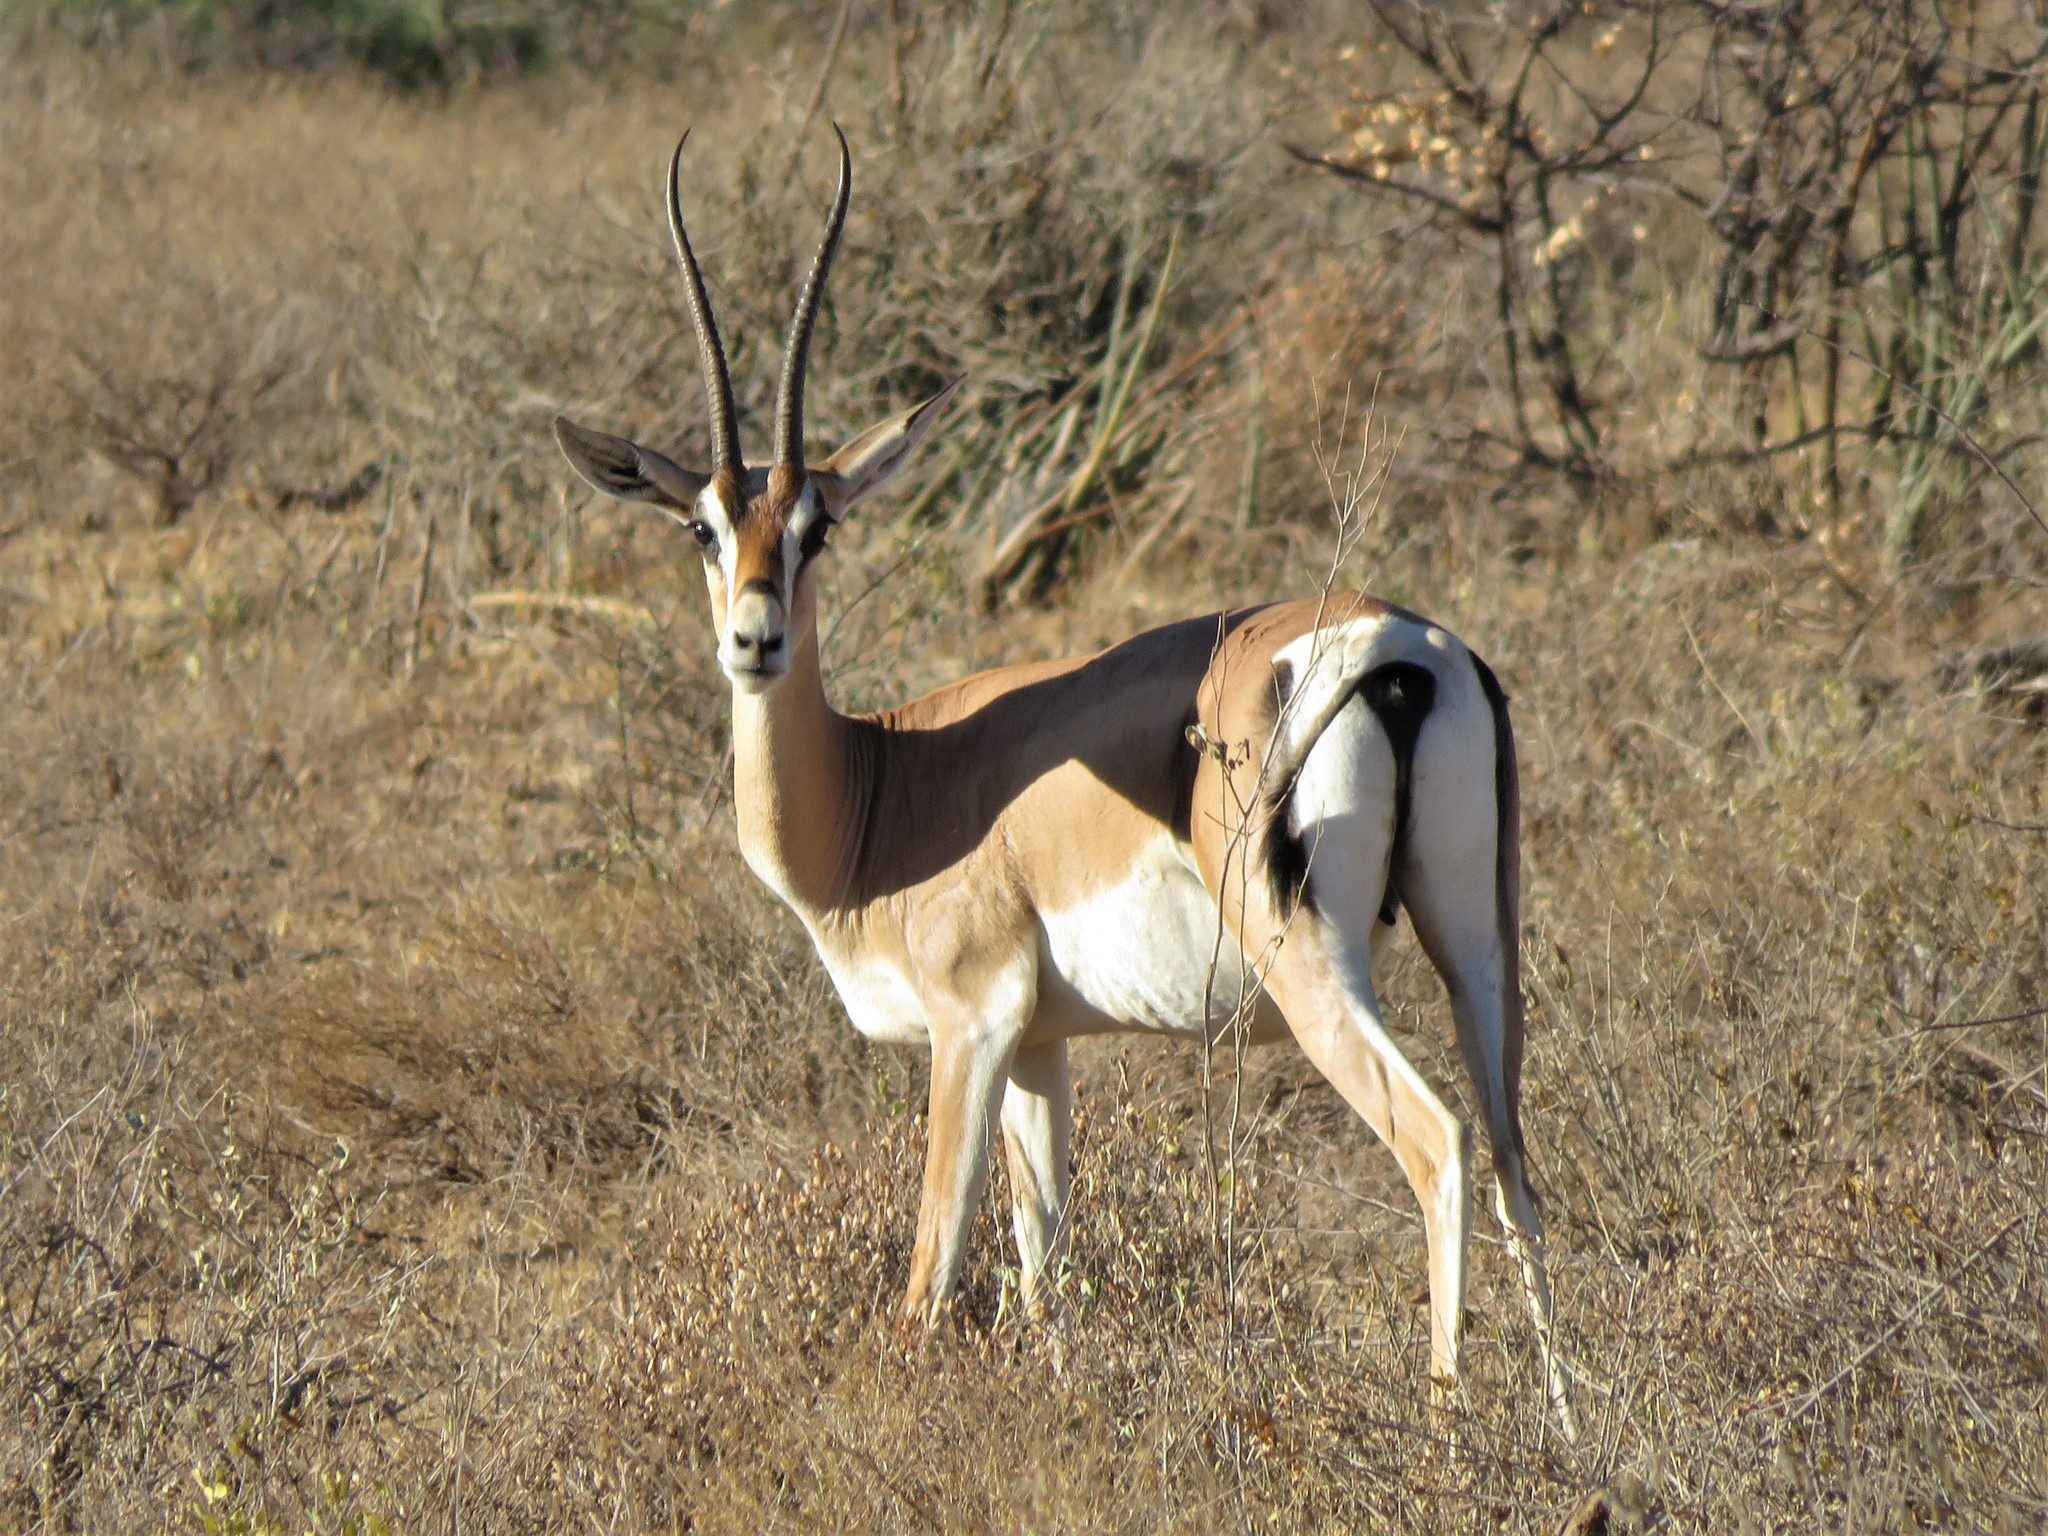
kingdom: Animalia
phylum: Chordata
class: Mammalia
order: Artiodactyla
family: Bovidae
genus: Nanger
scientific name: Nanger granti
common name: Grant's gazelle
